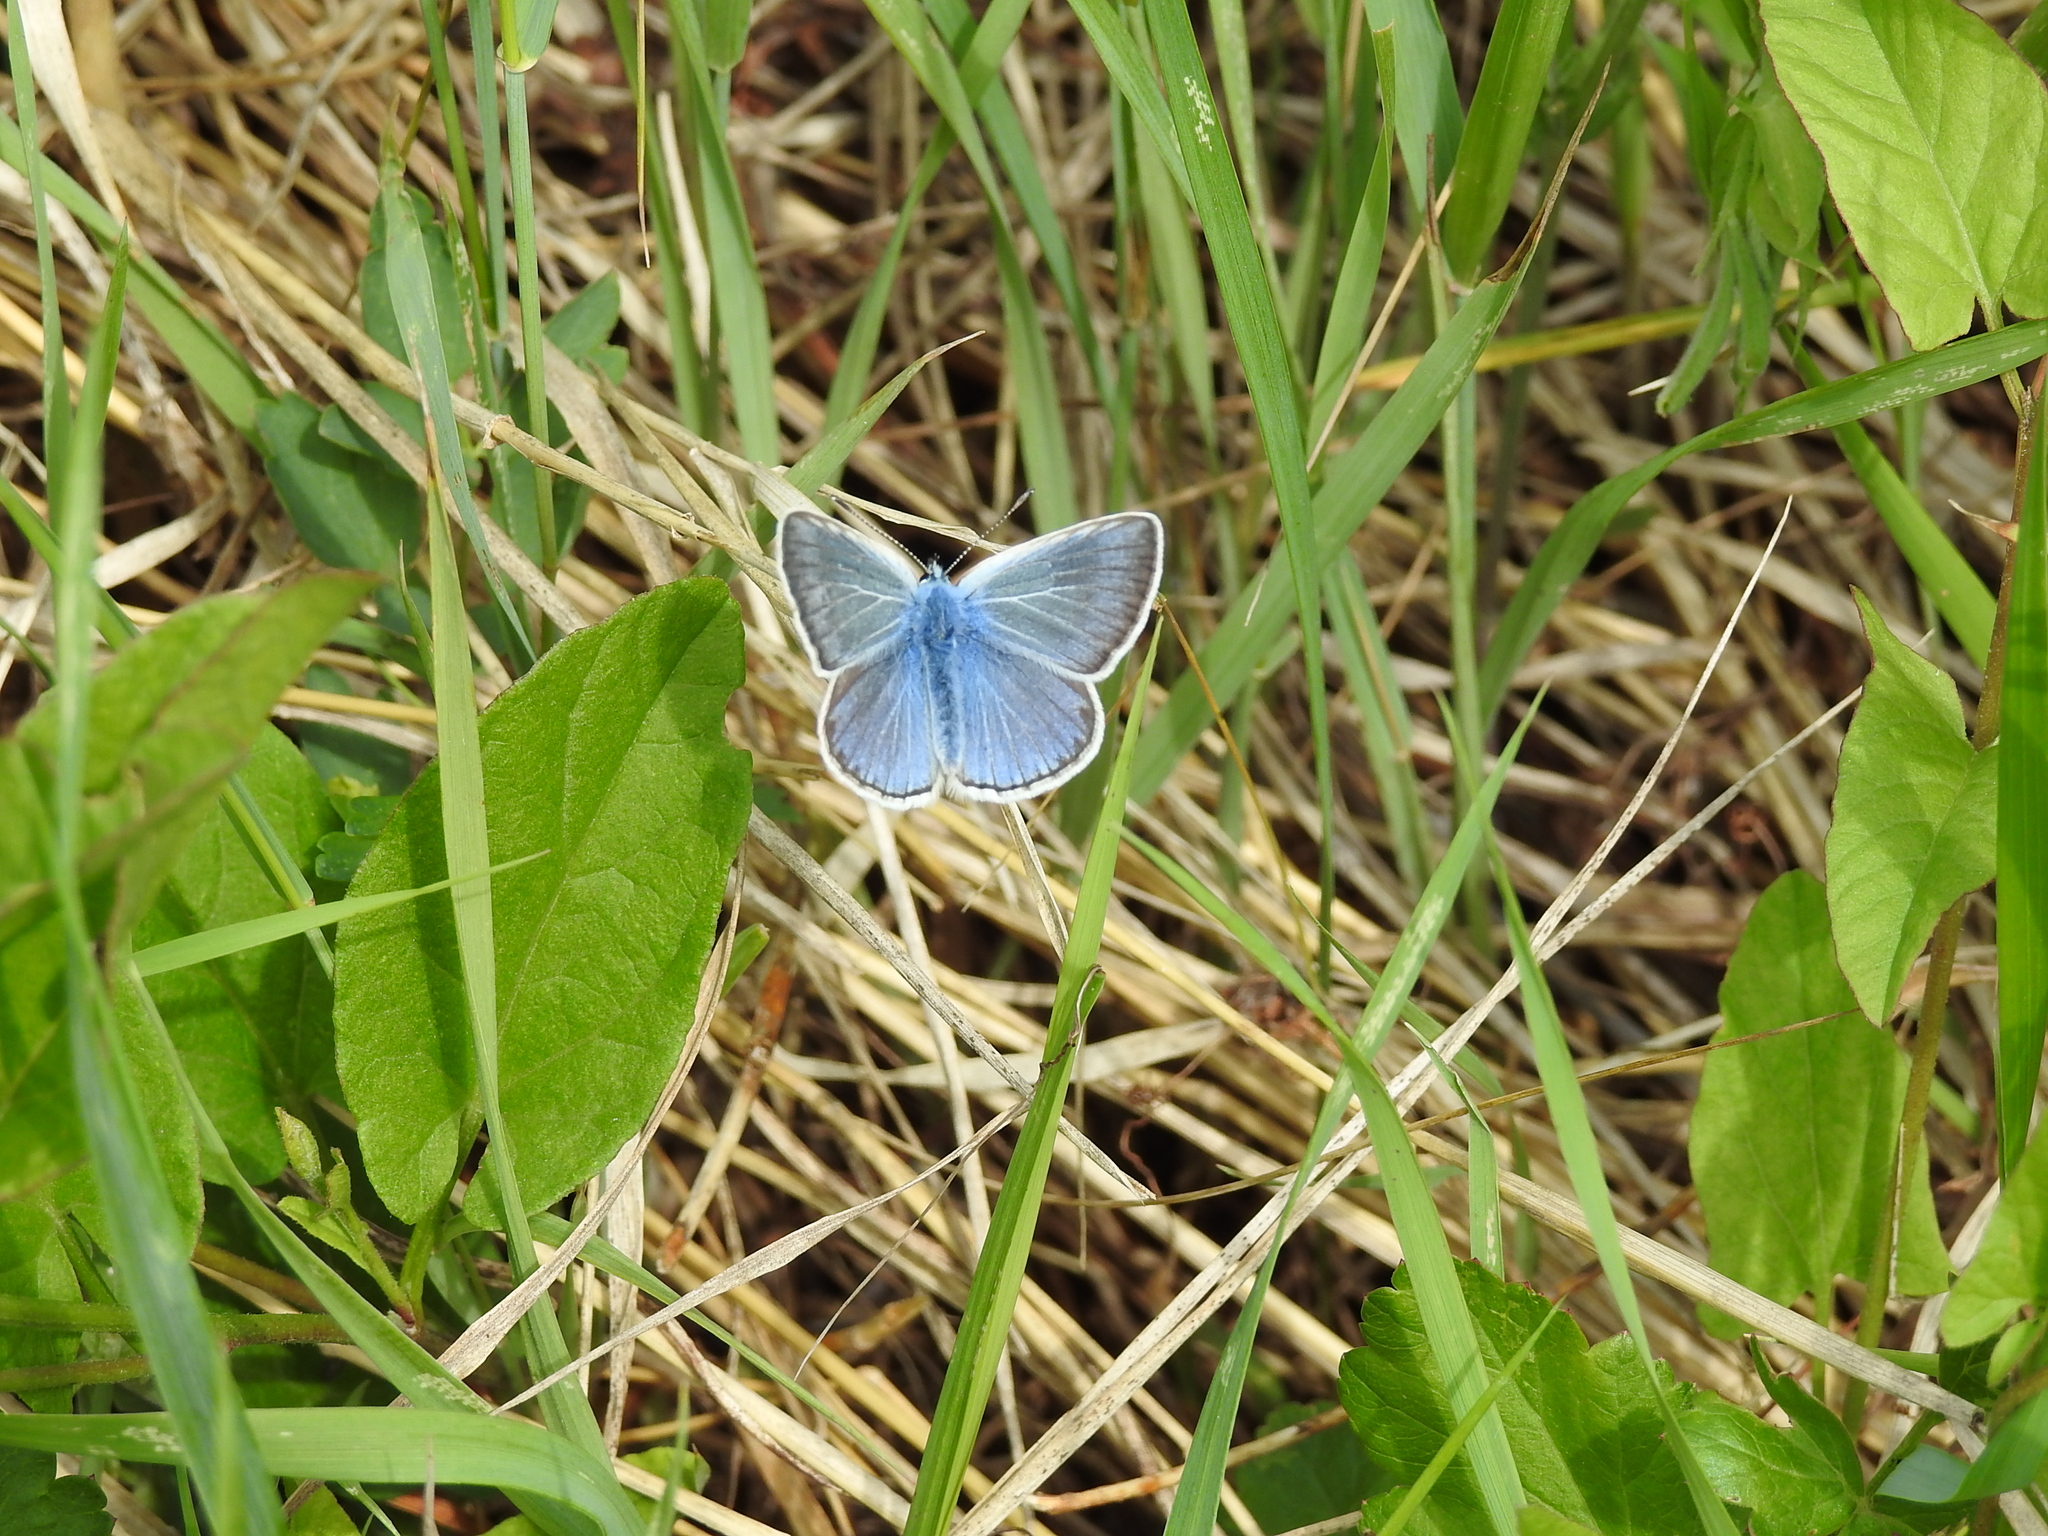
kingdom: Animalia
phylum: Arthropoda
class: Insecta
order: Lepidoptera
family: Lycaenidae
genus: Plebejus
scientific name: Plebejus amanda
